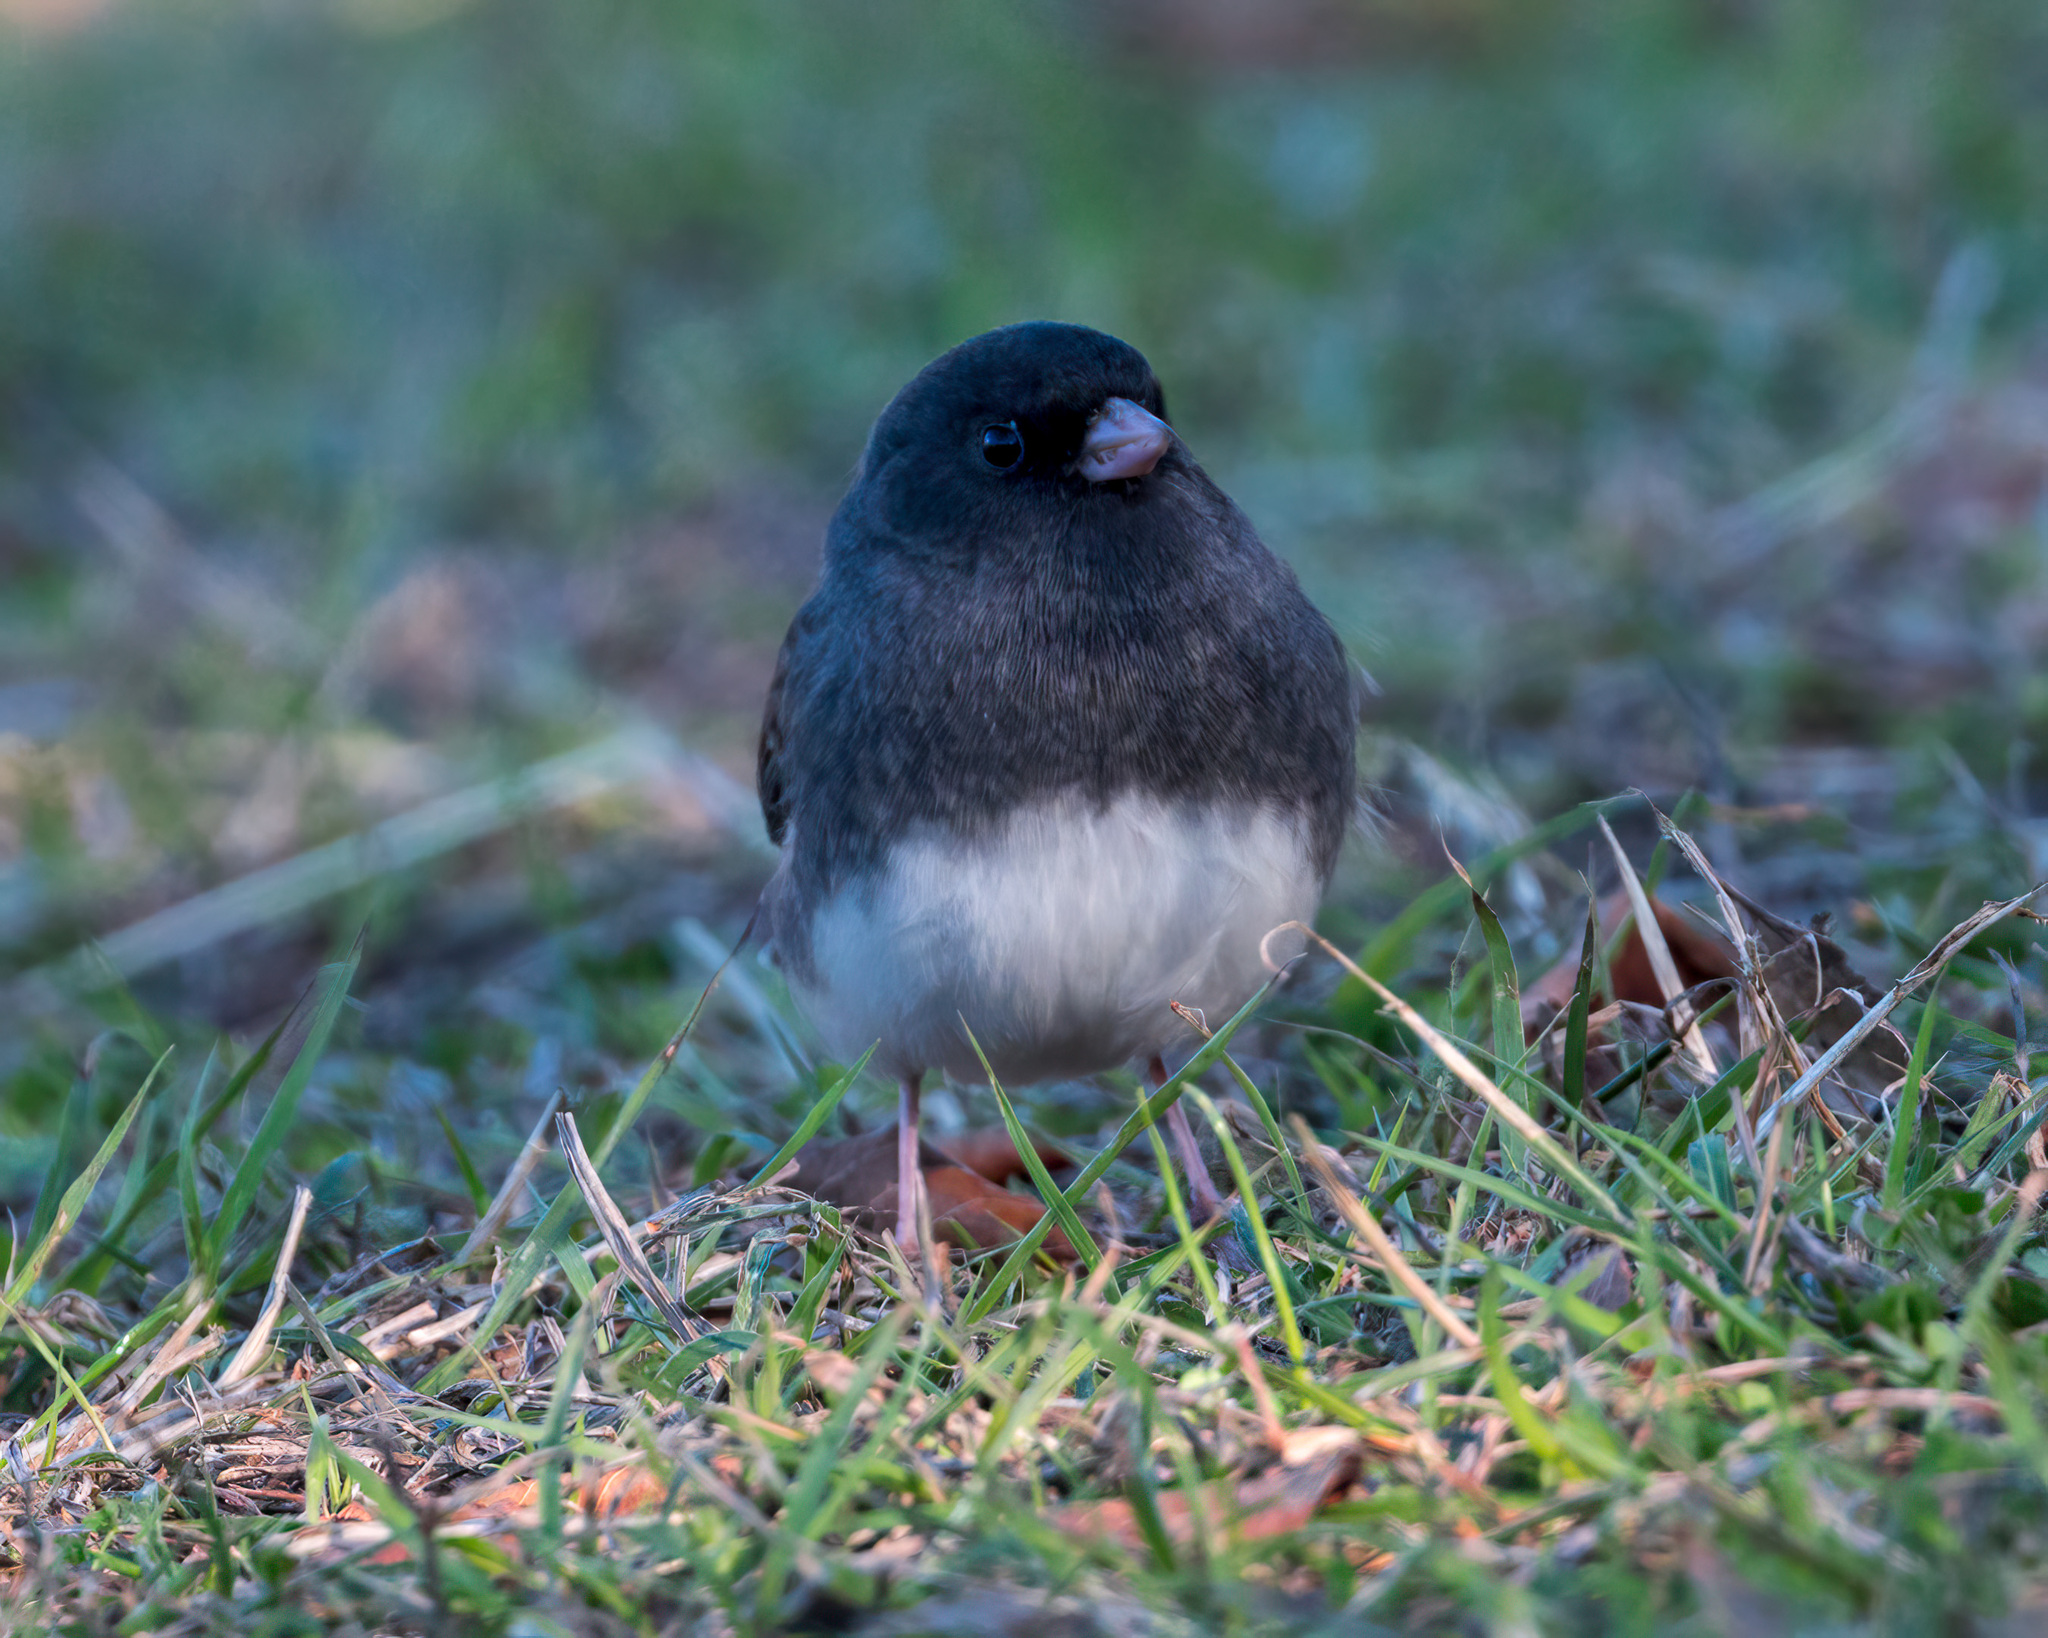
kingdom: Animalia
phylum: Chordata
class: Aves
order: Passeriformes
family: Passerellidae
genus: Junco
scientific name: Junco hyemalis
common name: Dark-eyed junco
